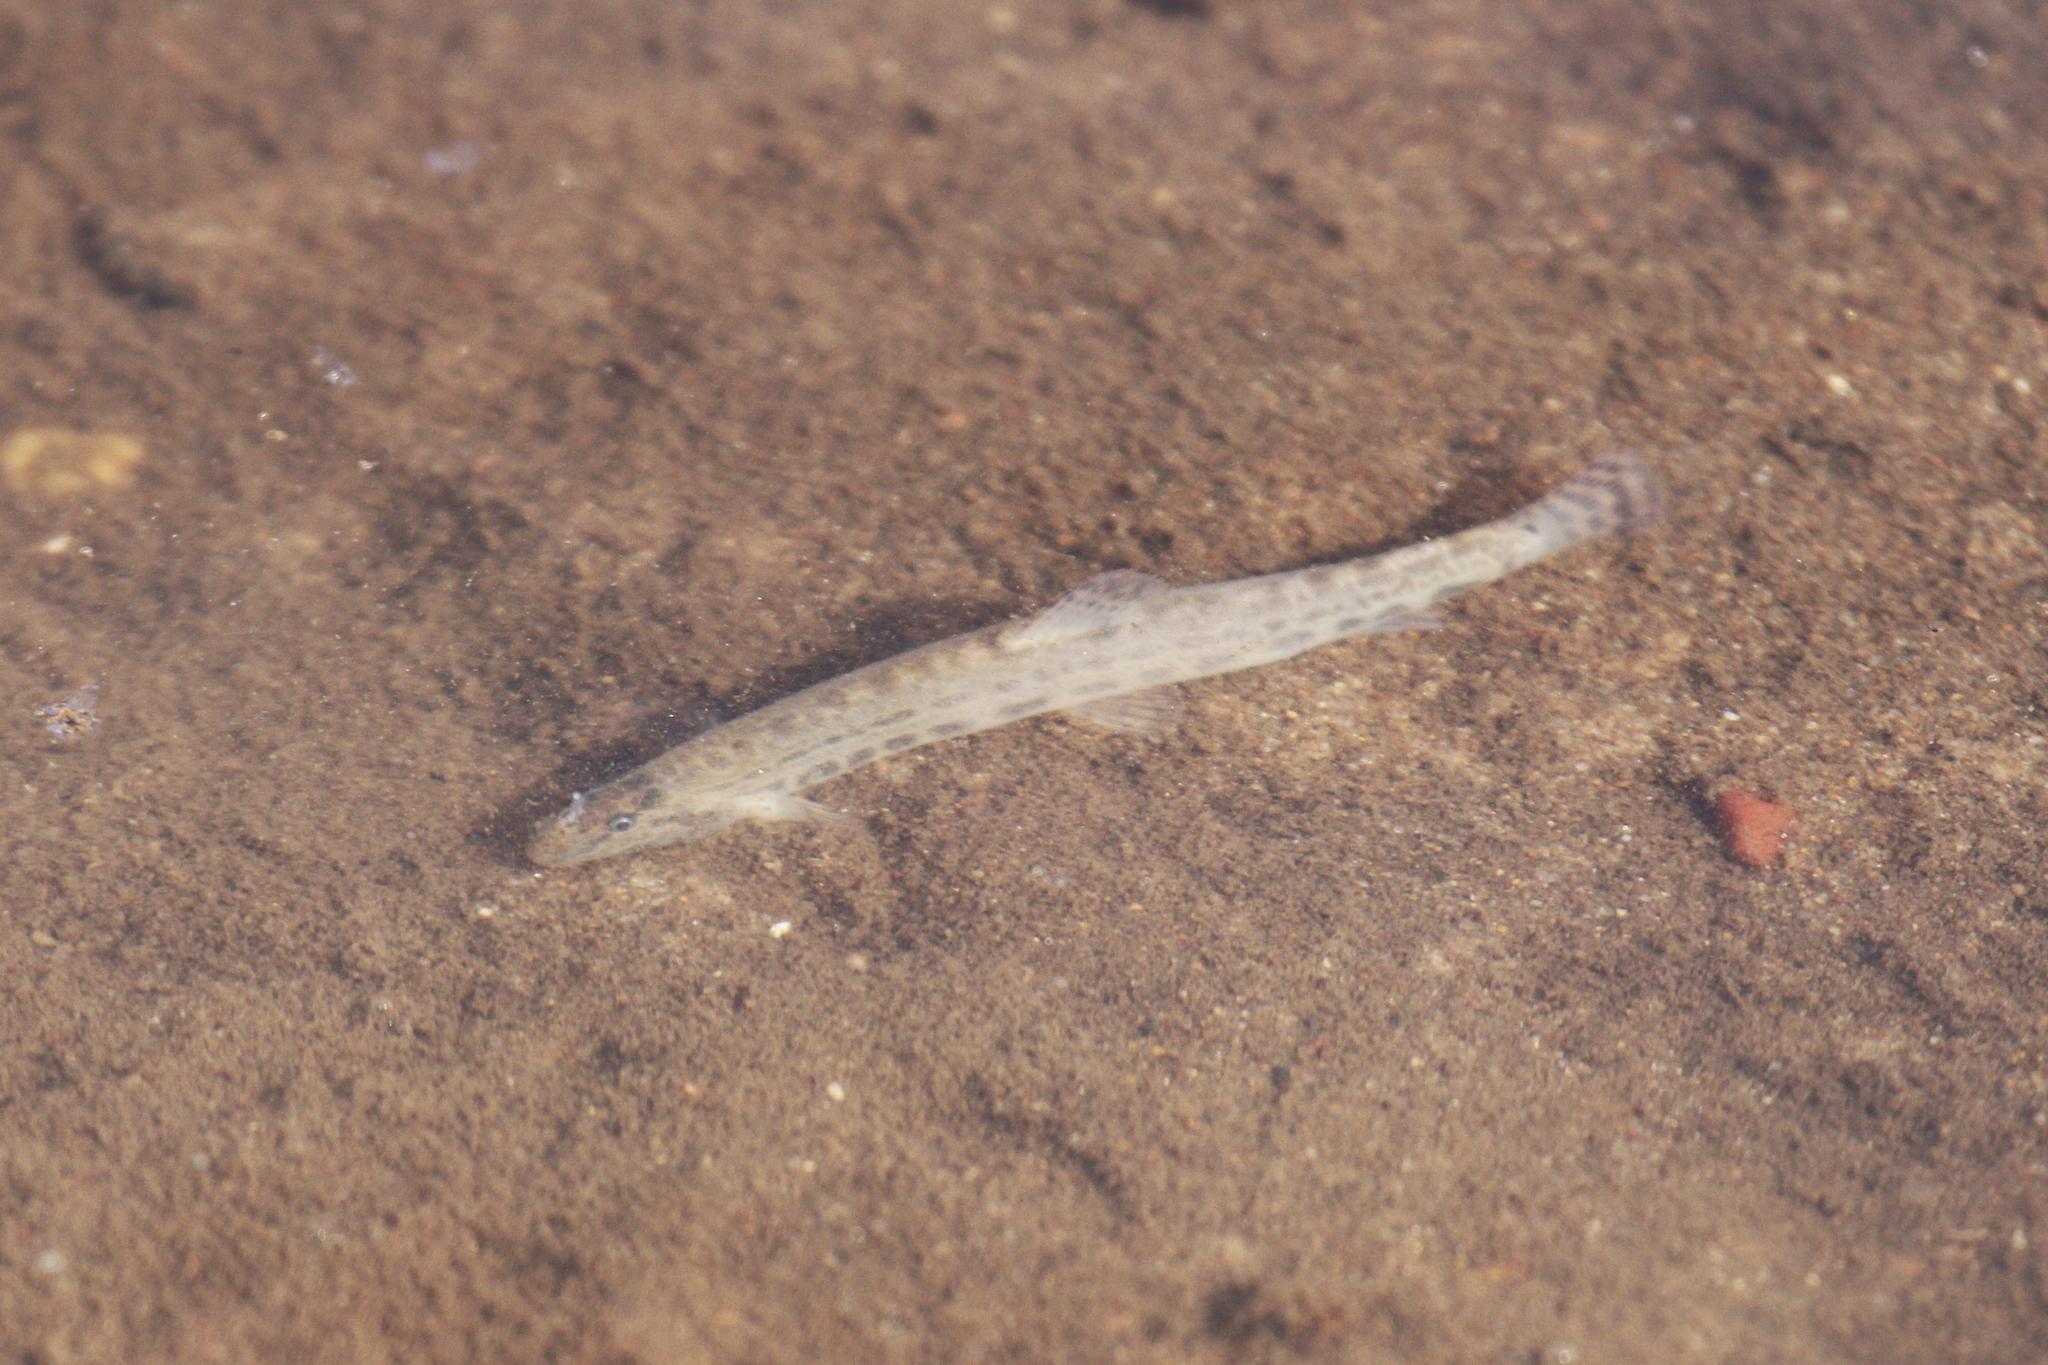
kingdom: Animalia
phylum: Chordata
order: Cypriniformes
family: Cobitidae
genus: Cobitis
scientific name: Cobitis taenia
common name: Spined loach
